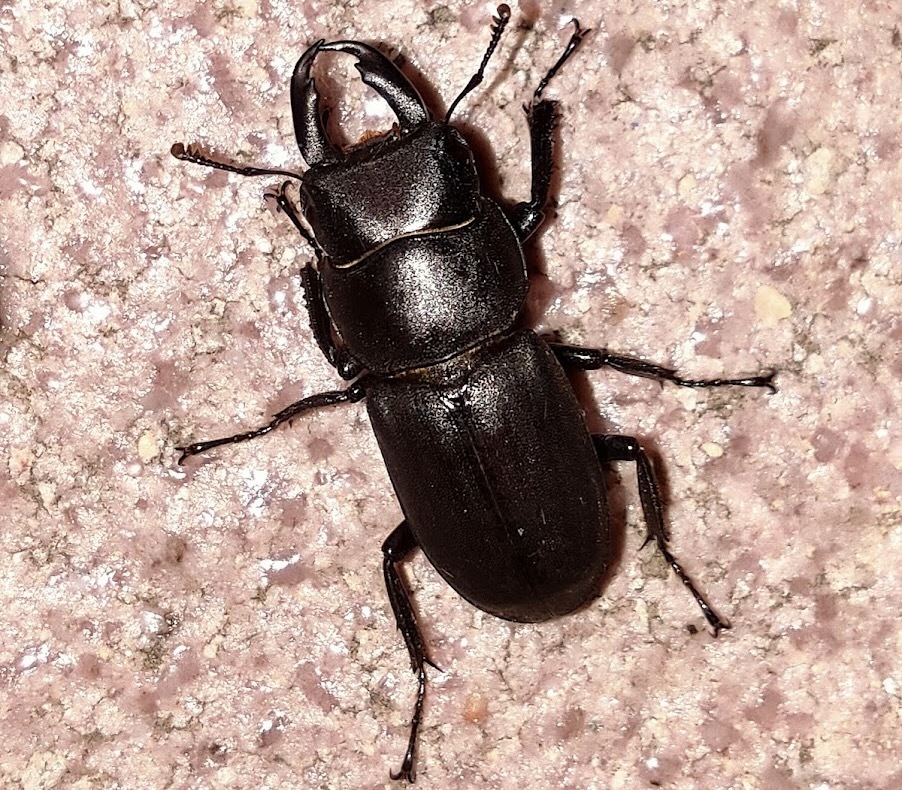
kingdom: Animalia
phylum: Arthropoda
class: Insecta
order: Coleoptera
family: Lucanidae
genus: Dorcus
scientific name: Dorcus striatipennis
